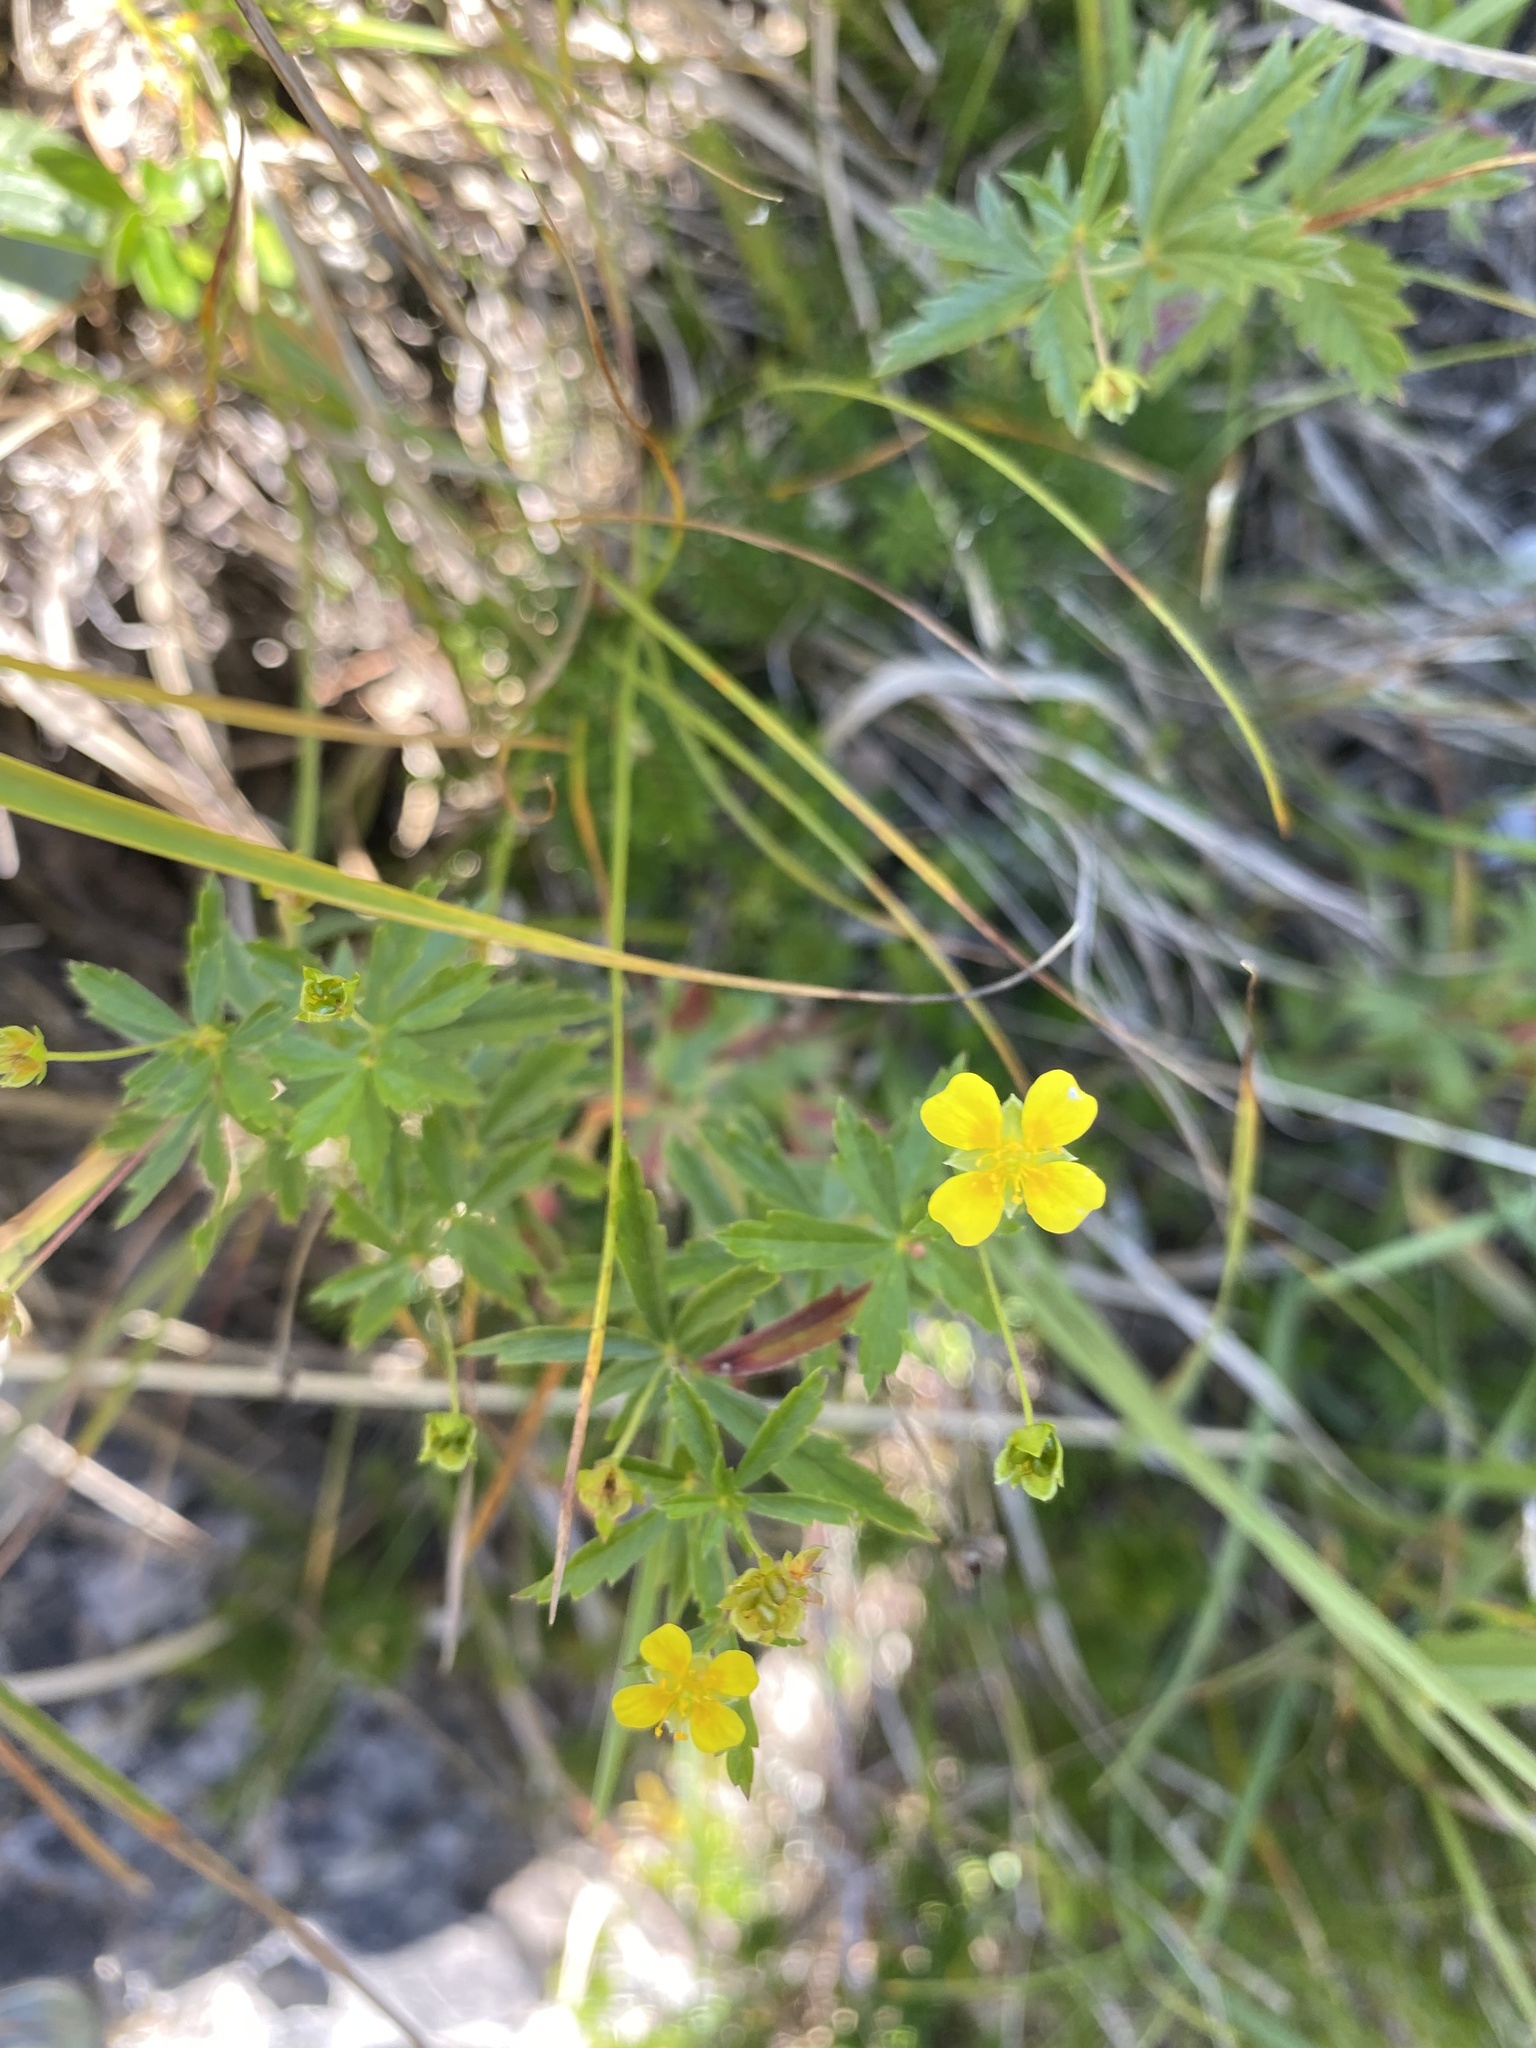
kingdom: Plantae
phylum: Tracheophyta
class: Magnoliopsida
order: Rosales
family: Rosaceae
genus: Potentilla
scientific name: Potentilla erecta
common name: Tormentil
